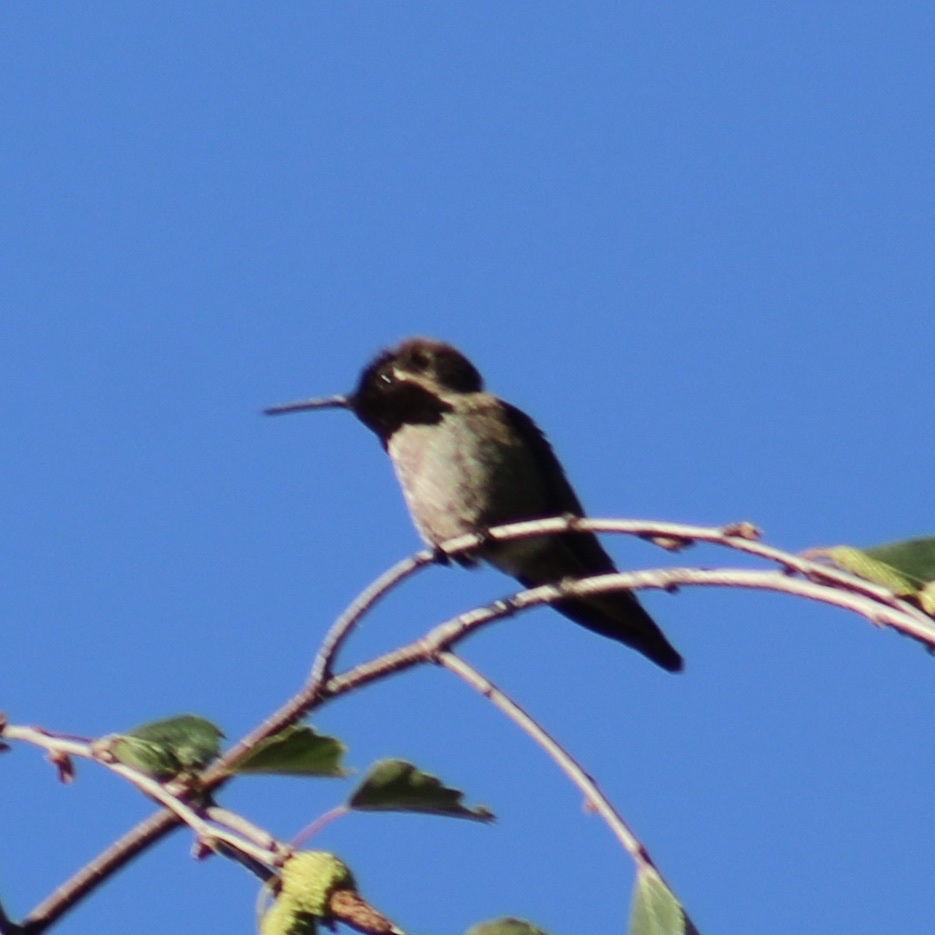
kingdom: Animalia
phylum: Chordata
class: Aves
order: Apodiformes
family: Trochilidae
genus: Calypte
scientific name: Calypte anna
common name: Anna's hummingbird
